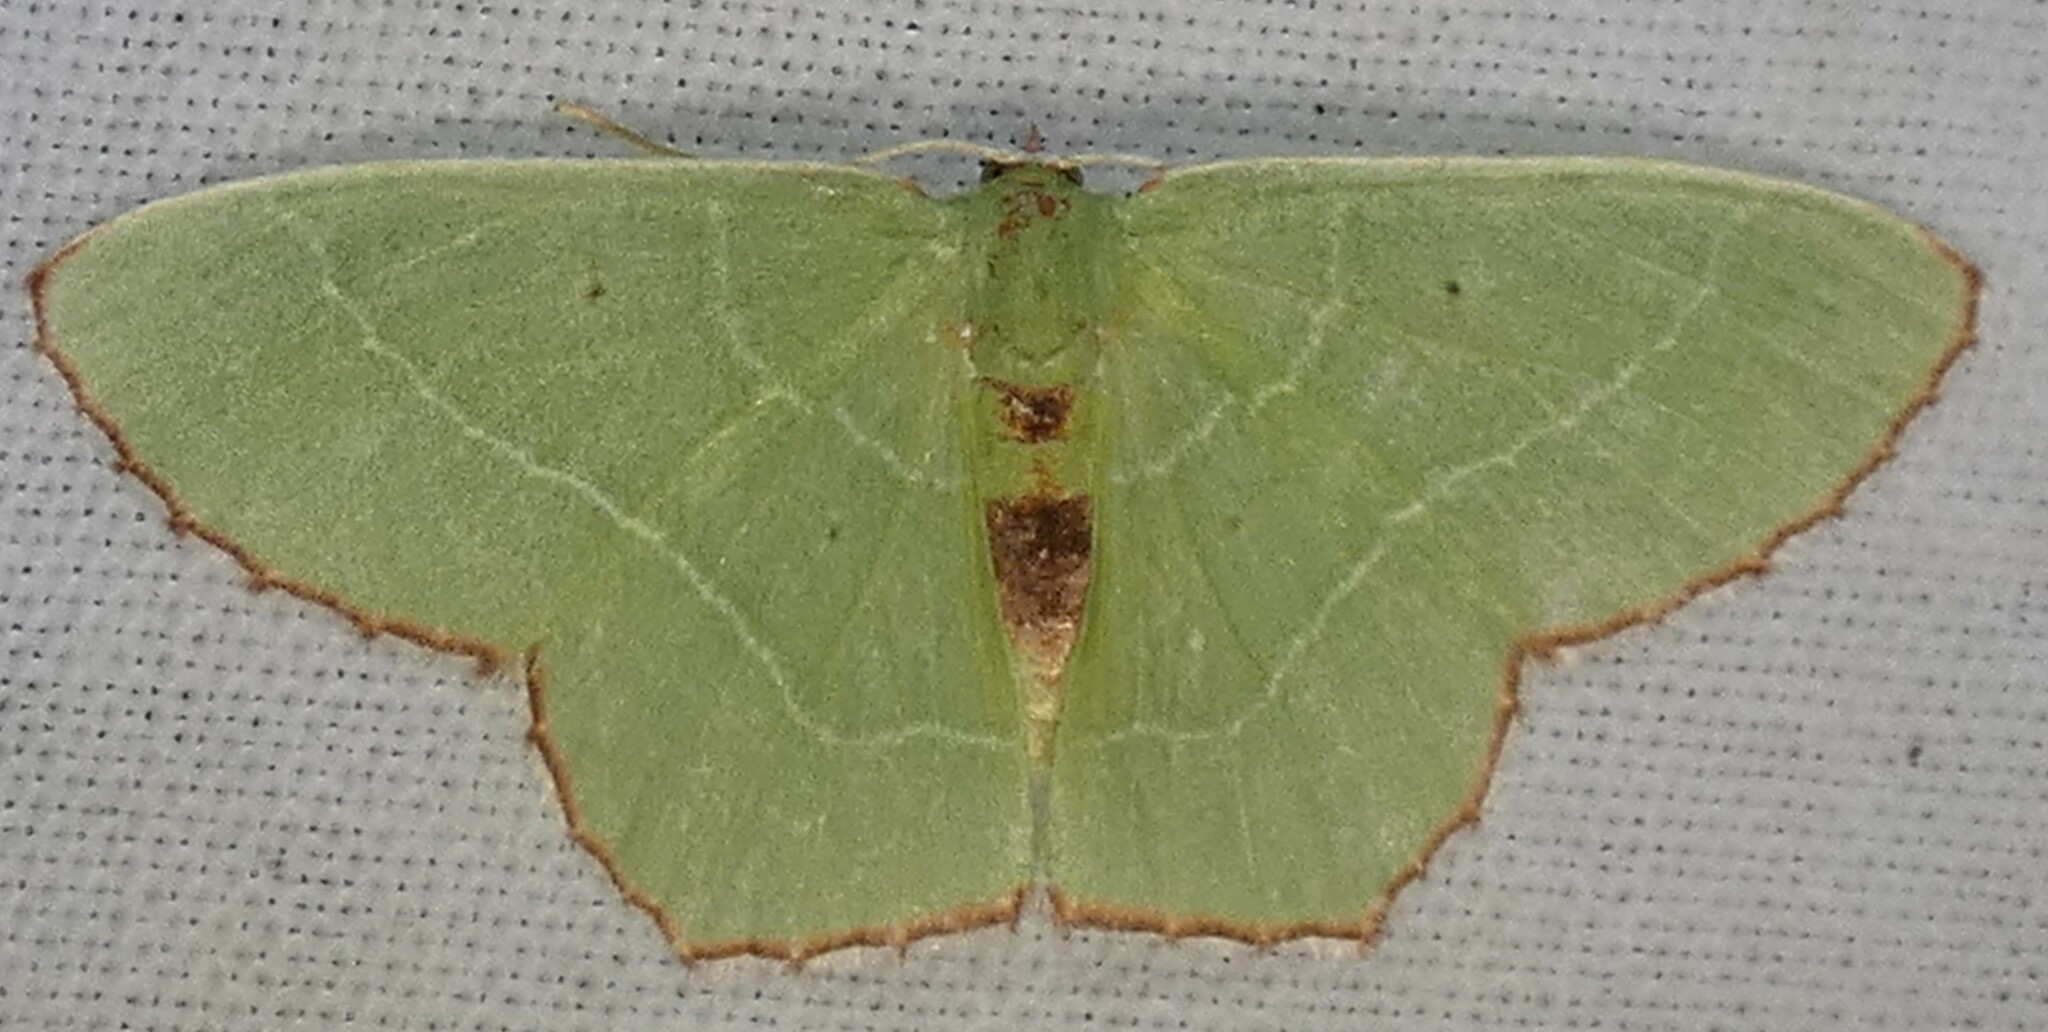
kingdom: Animalia
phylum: Arthropoda
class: Insecta
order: Lepidoptera
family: Geometridae
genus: Nemoria
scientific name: Nemoria saturiba
